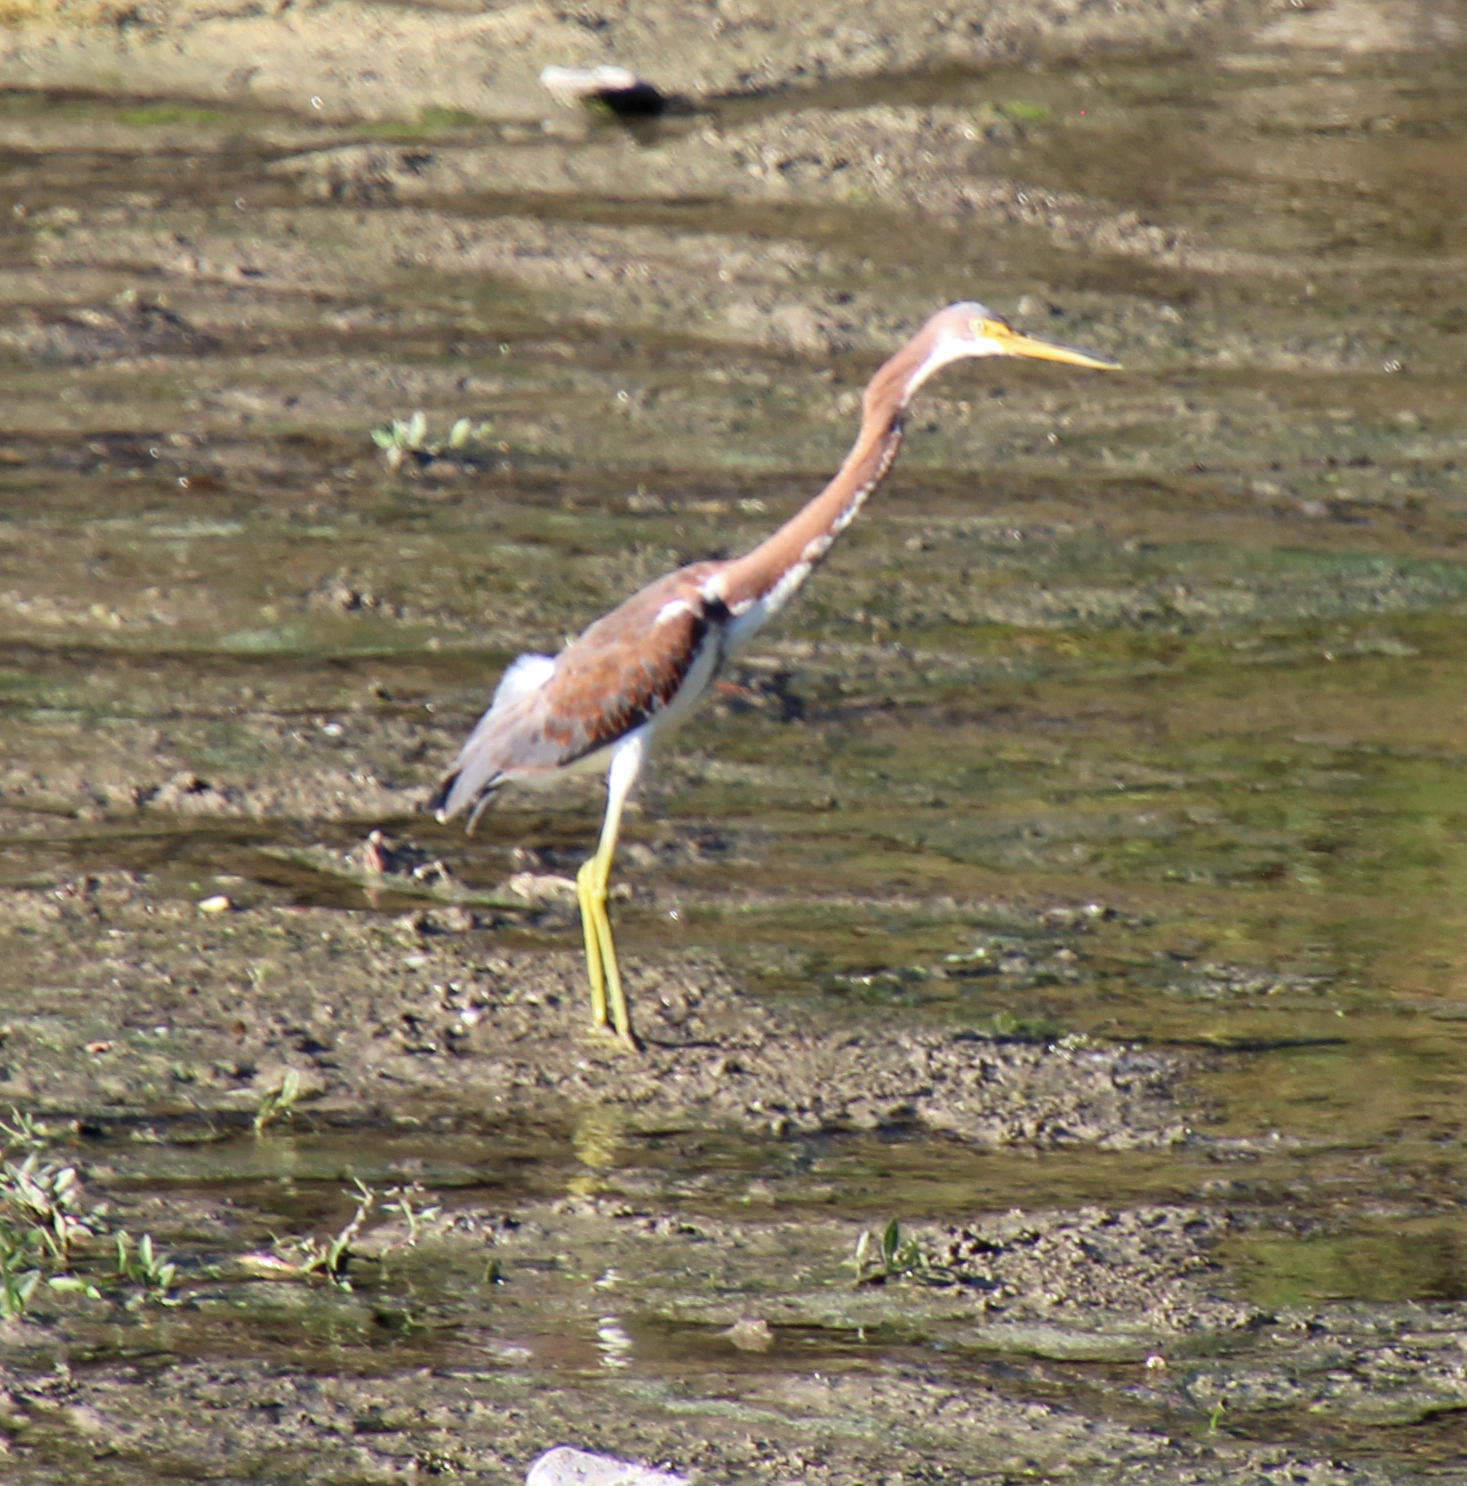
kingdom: Animalia
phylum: Chordata
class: Aves
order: Pelecaniformes
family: Ardeidae
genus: Egretta
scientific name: Egretta tricolor
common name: Tricolored heron
